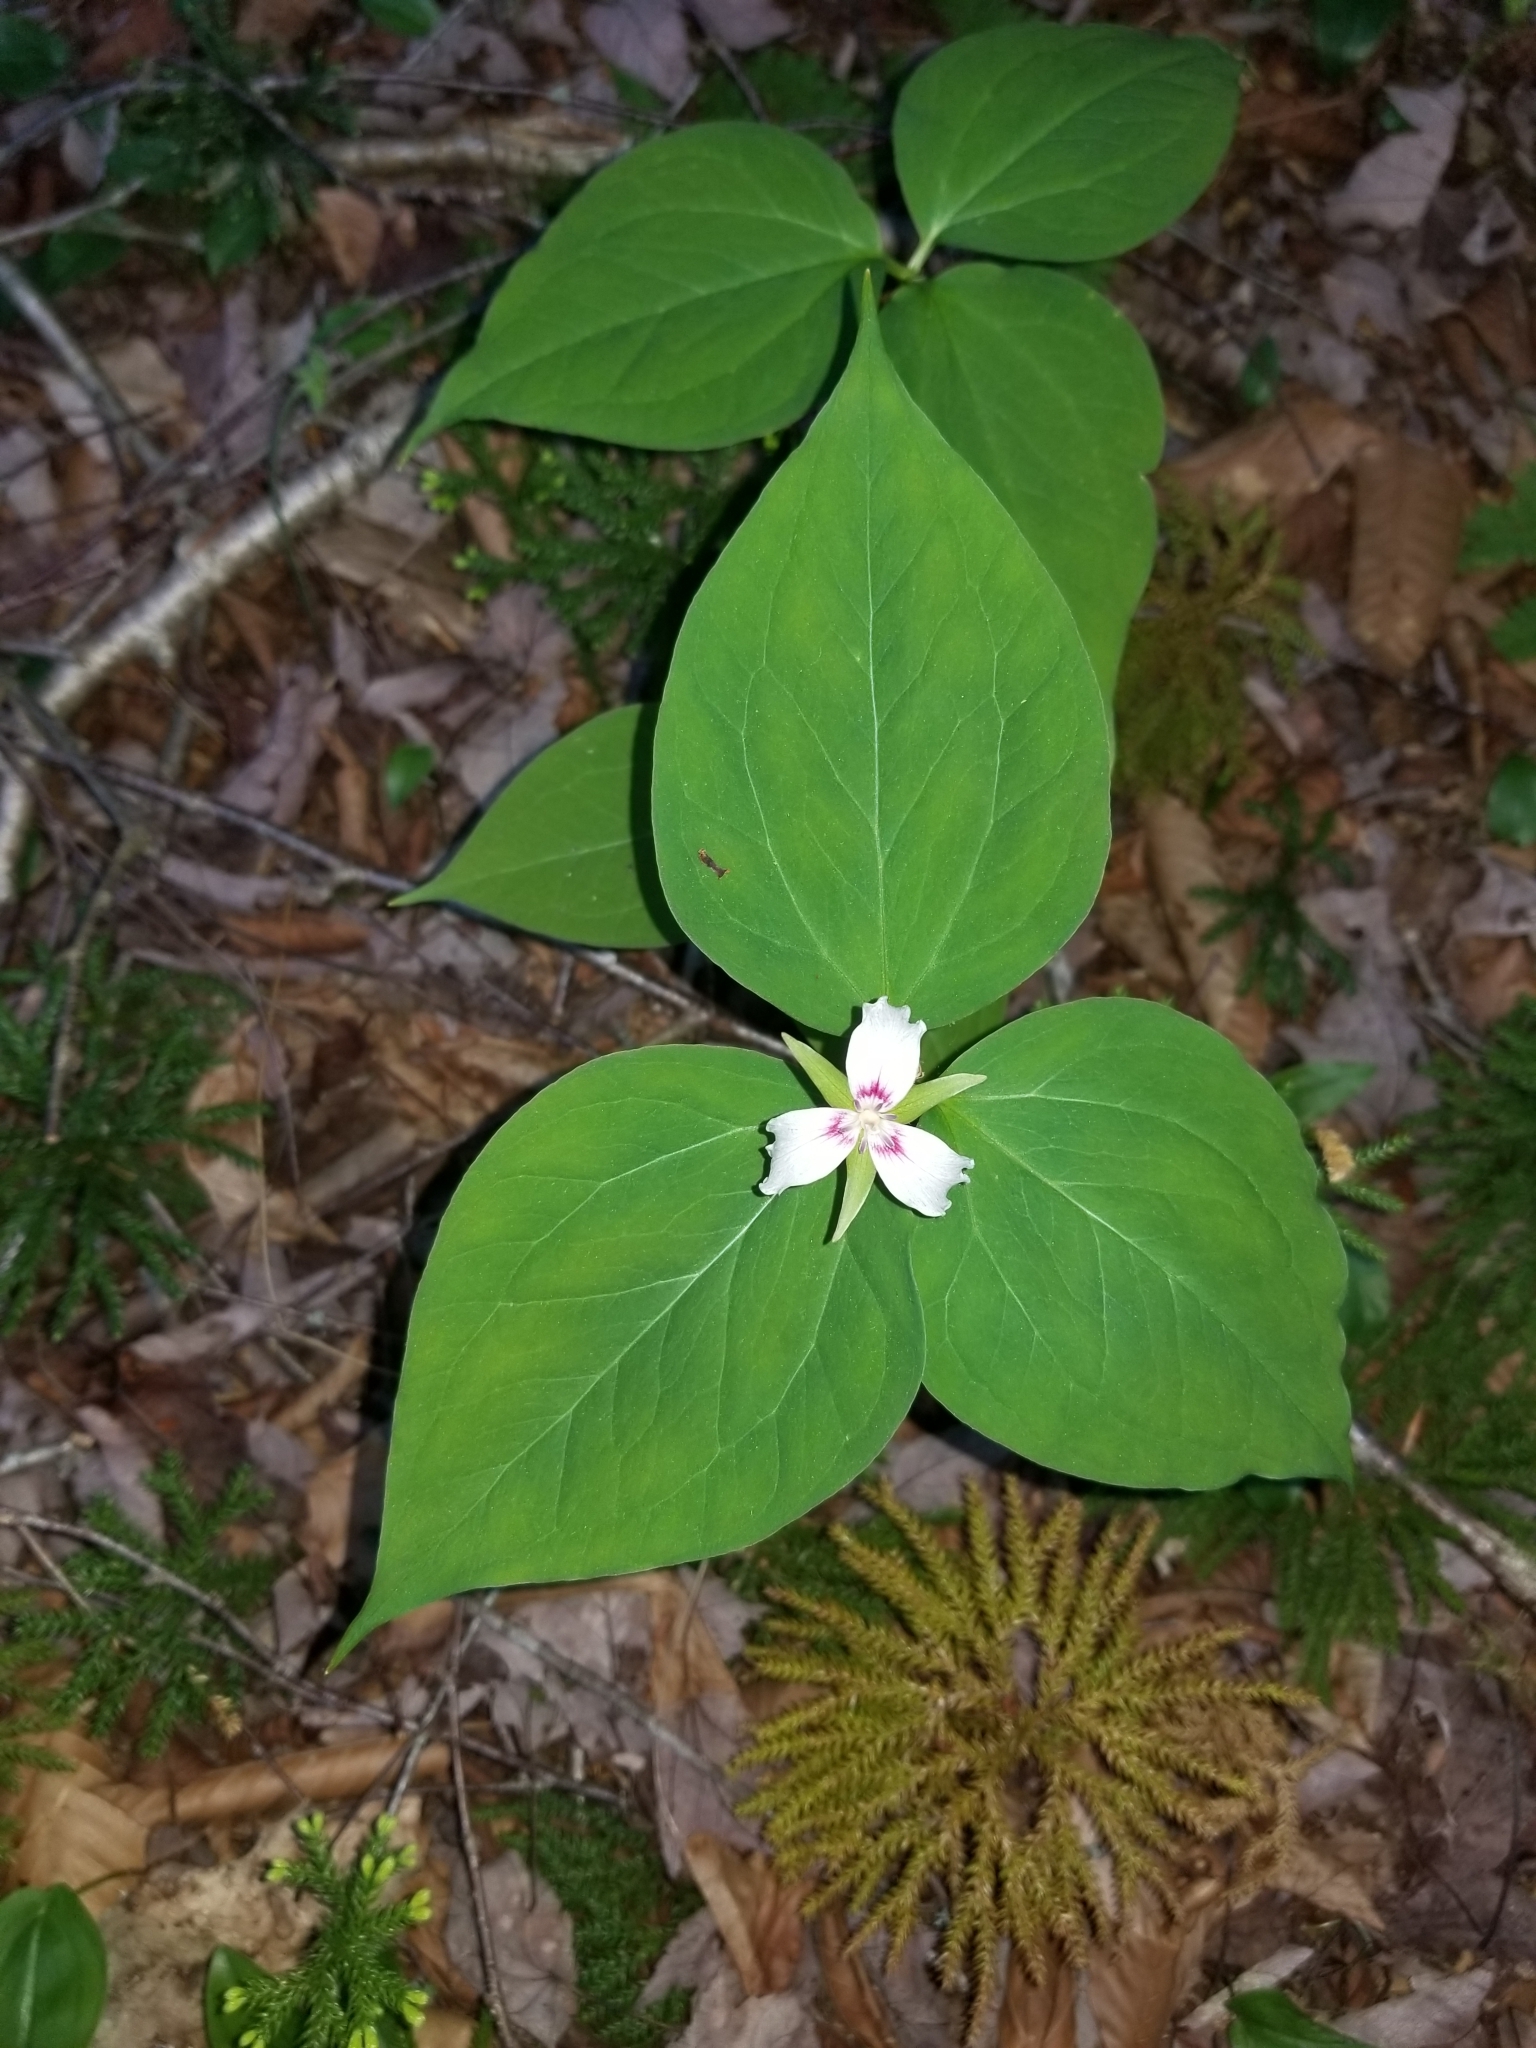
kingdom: Plantae
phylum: Tracheophyta
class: Liliopsida
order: Liliales
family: Melanthiaceae
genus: Trillium
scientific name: Trillium undulatum
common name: Paint trillium
